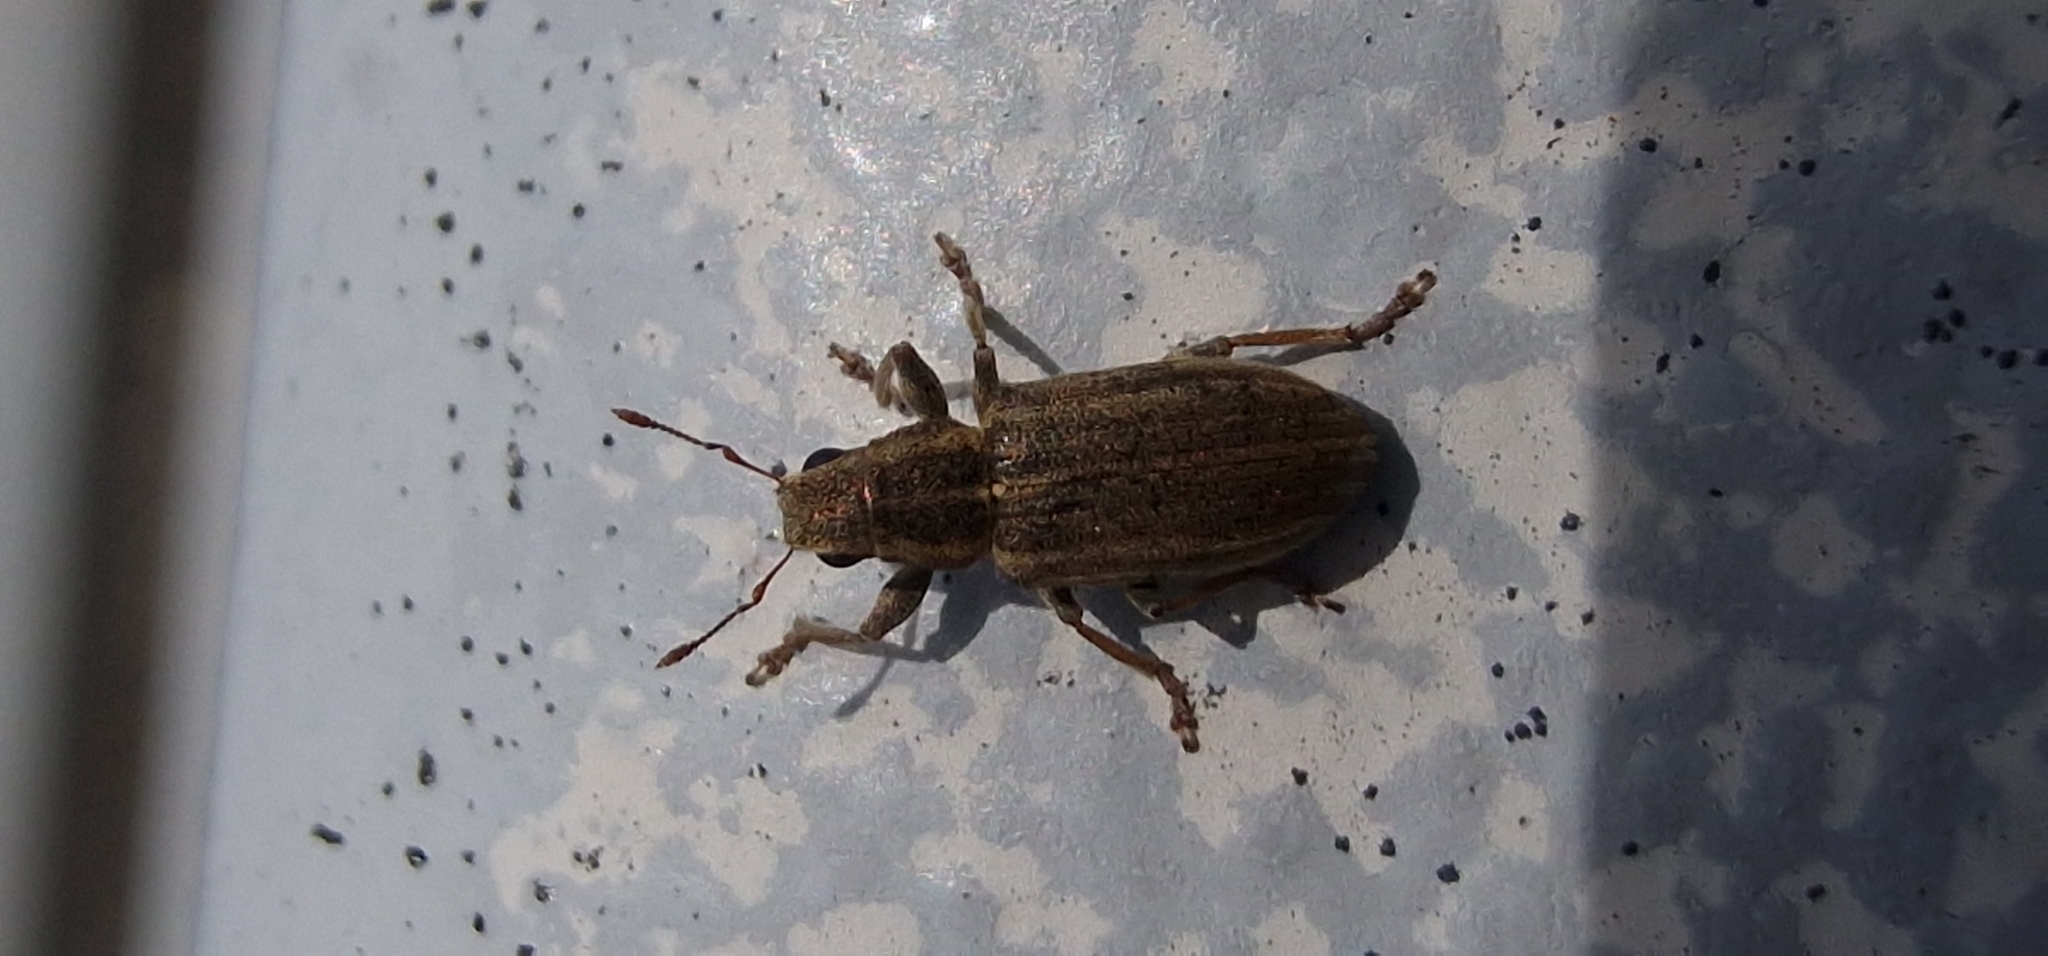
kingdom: Animalia
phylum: Arthropoda
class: Insecta
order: Coleoptera
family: Curculionidae
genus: Sitona
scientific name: Sitona lineatus
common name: Weevil
